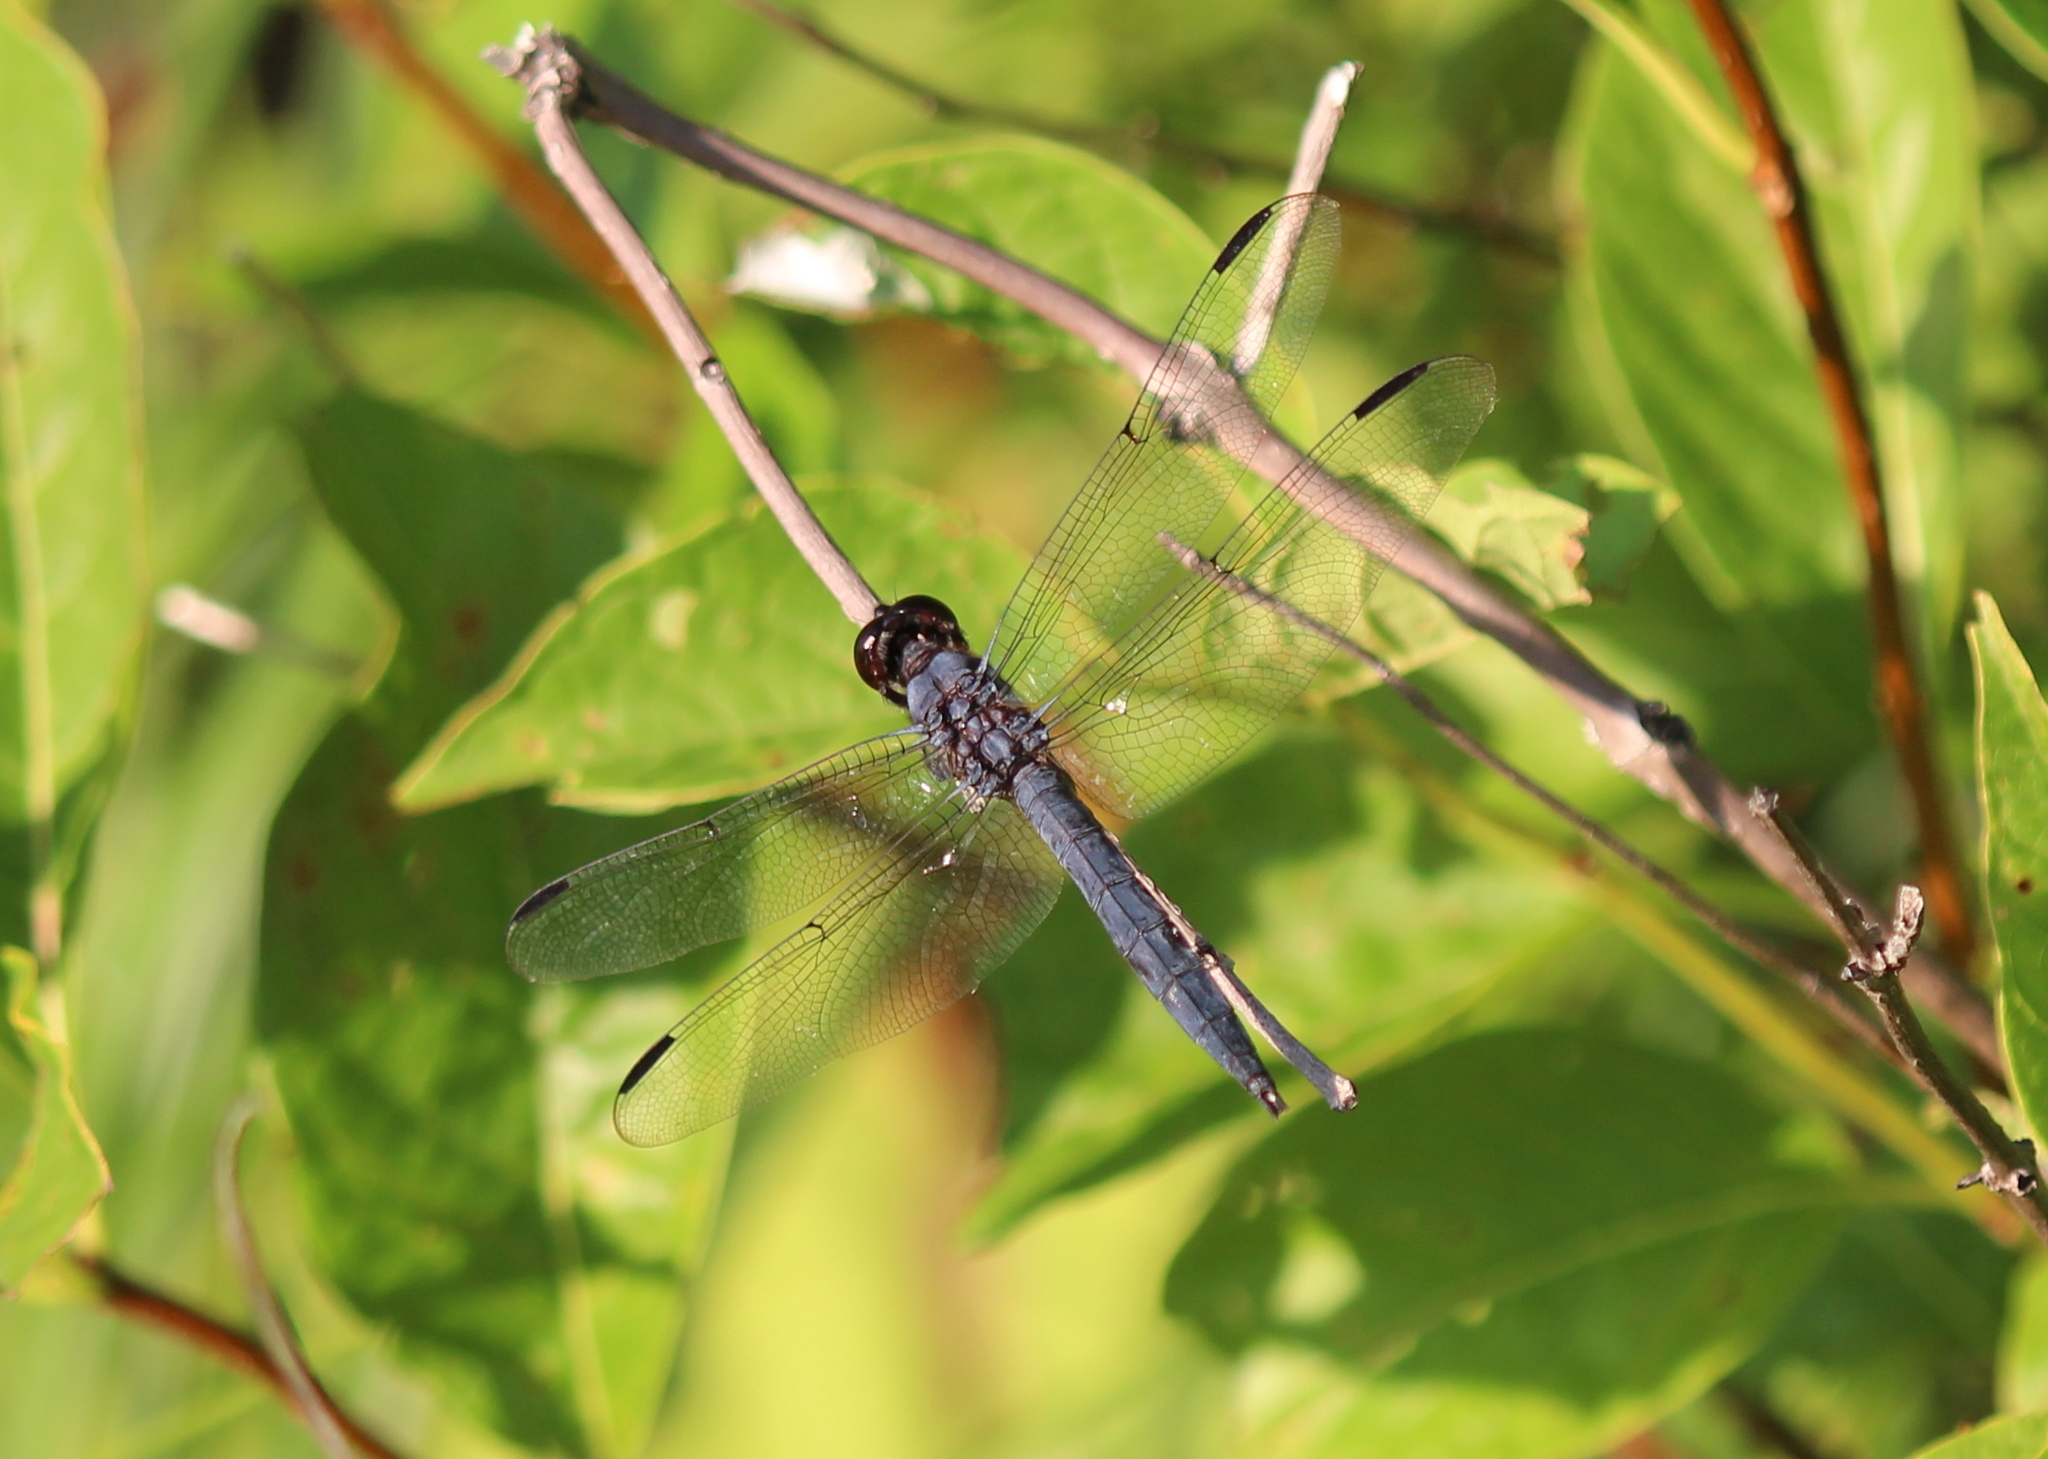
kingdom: Animalia
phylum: Arthropoda
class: Insecta
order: Odonata
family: Libellulidae
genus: Libellula
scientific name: Libellula incesta
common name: Slaty skimmer
